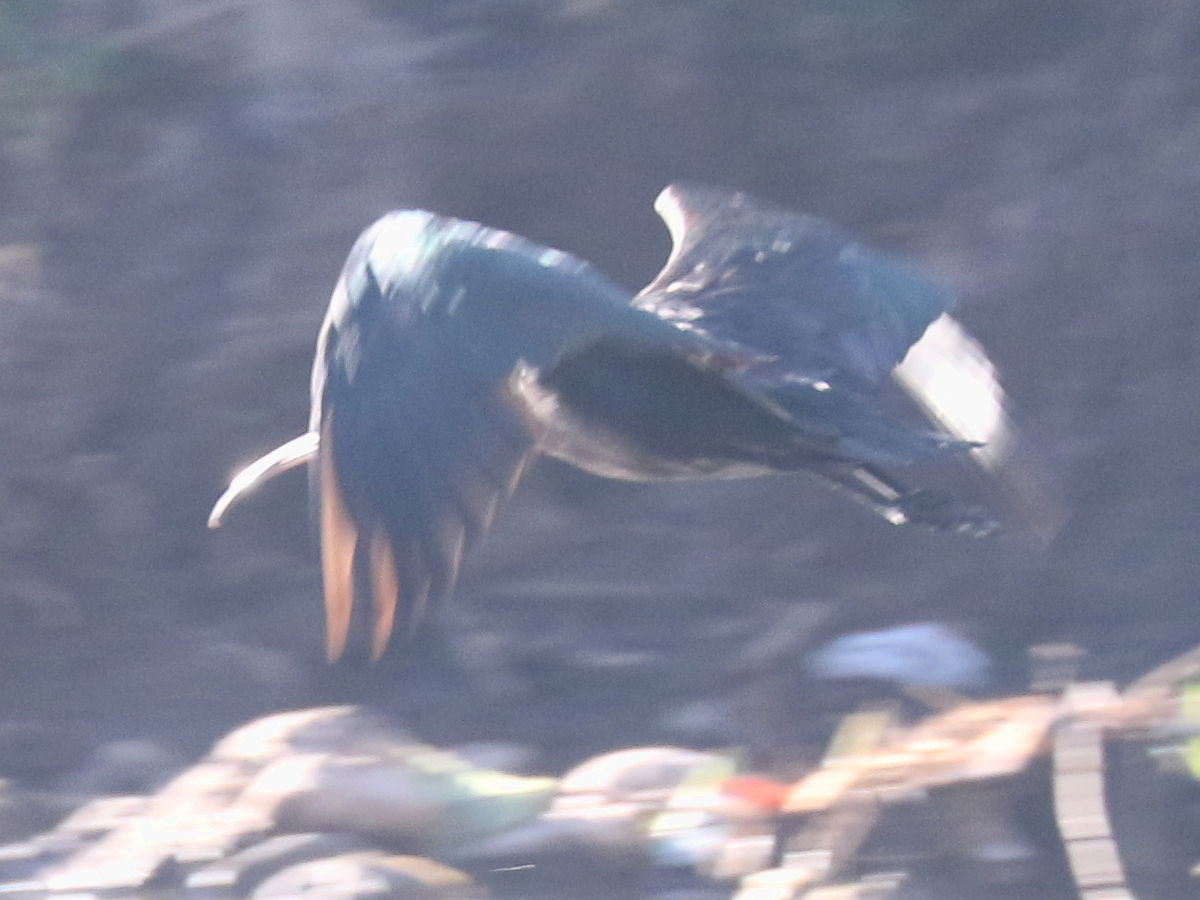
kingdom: Animalia
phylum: Chordata
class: Aves
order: Pelecaniformes
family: Threskiornithidae
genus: Plegadis
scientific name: Plegadis ridgwayi
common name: Puna ibis
